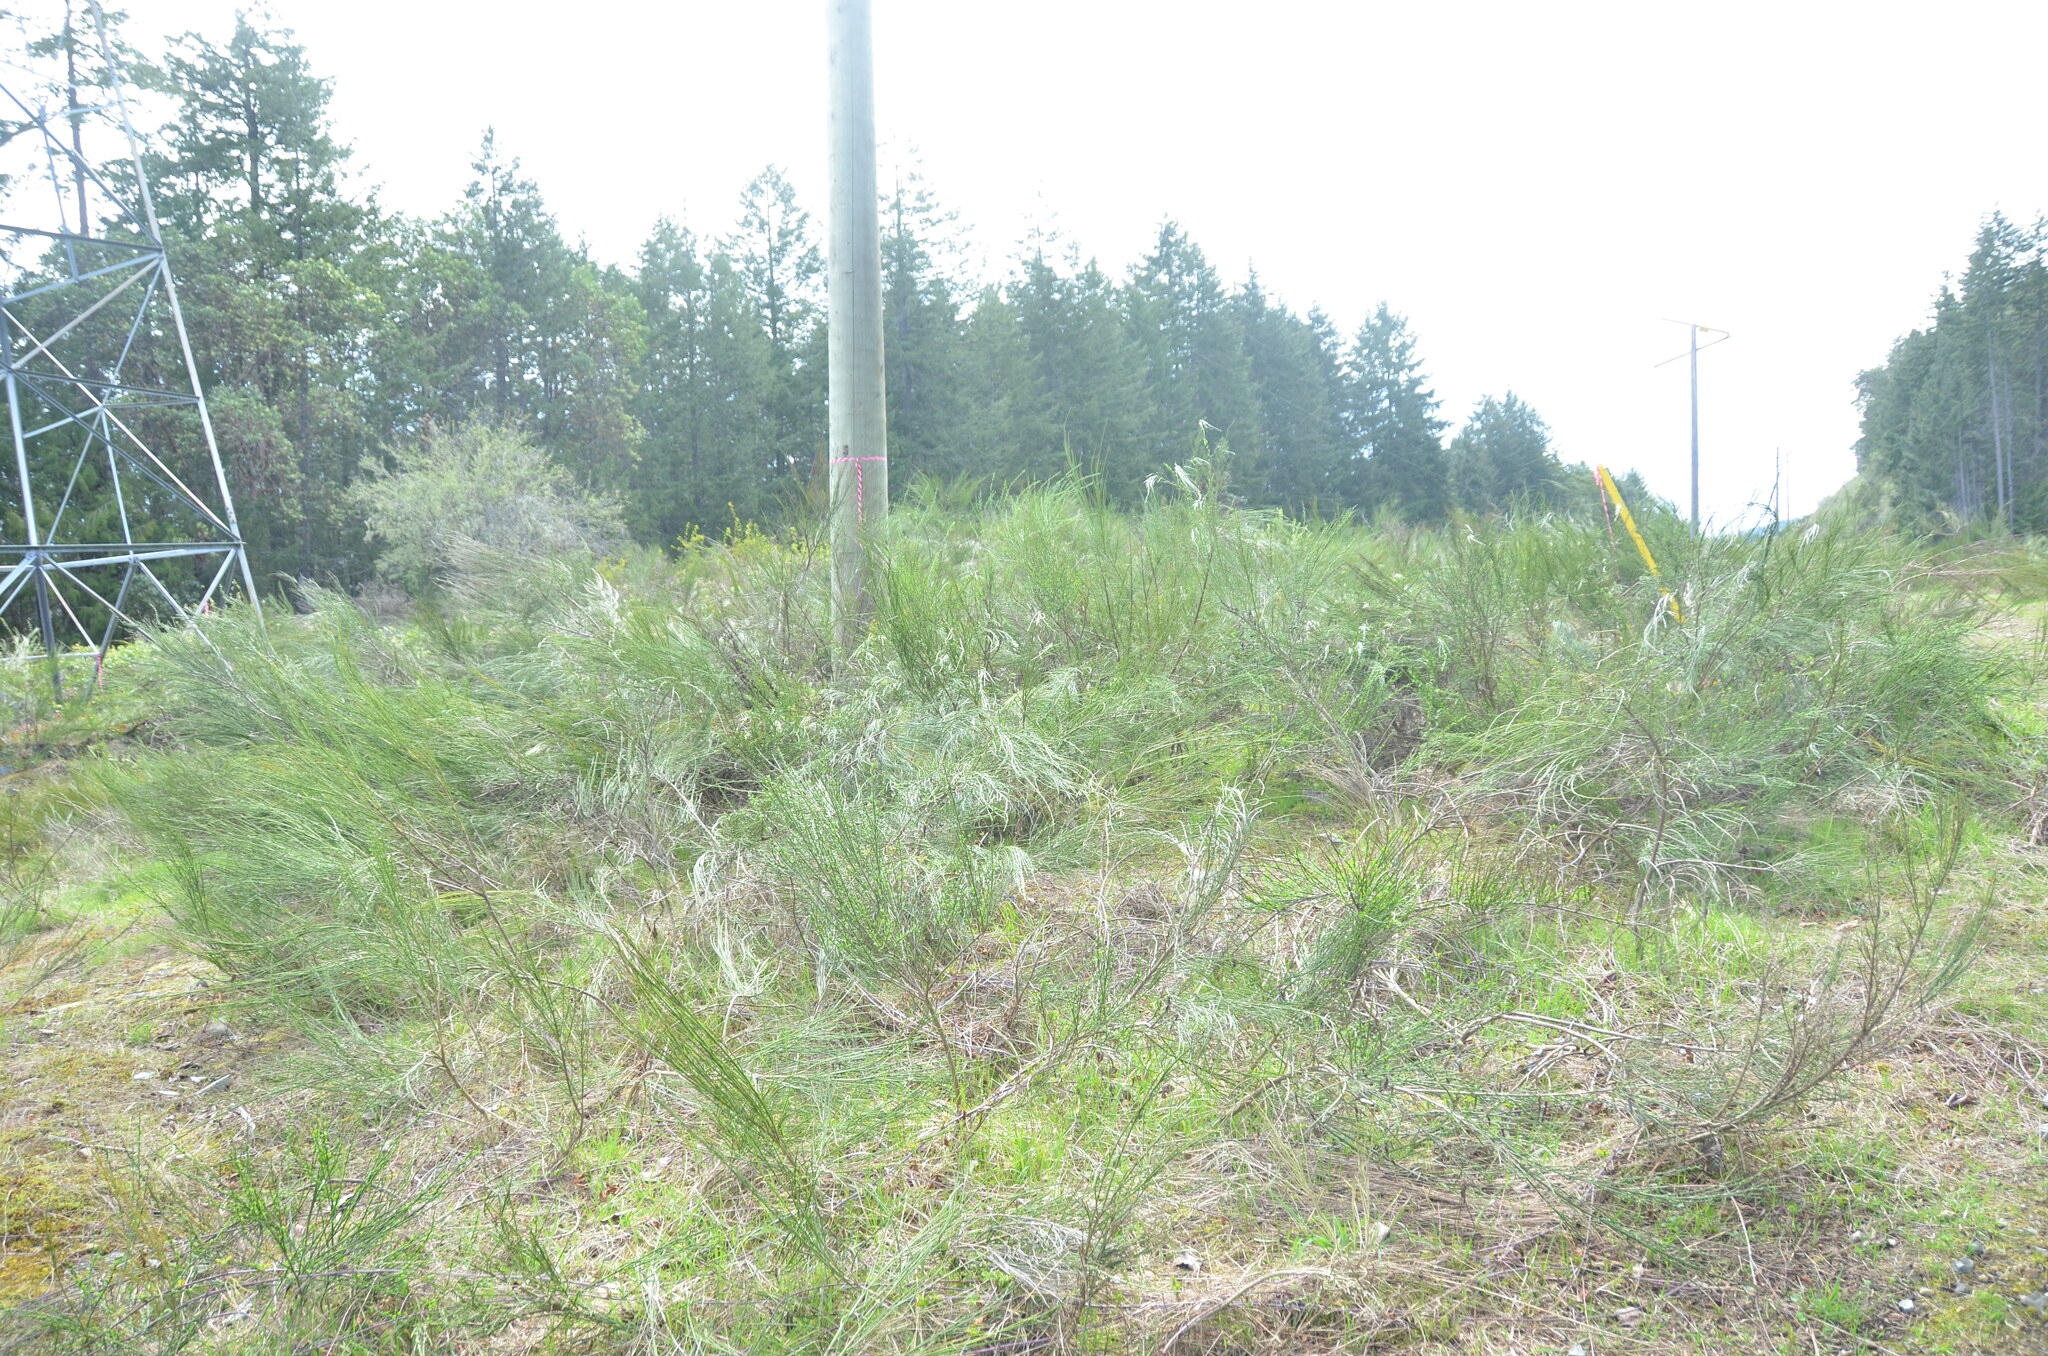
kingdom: Plantae
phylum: Tracheophyta
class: Magnoliopsida
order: Fabales
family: Fabaceae
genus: Cytisus
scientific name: Cytisus scoparius
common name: Scotch broom
